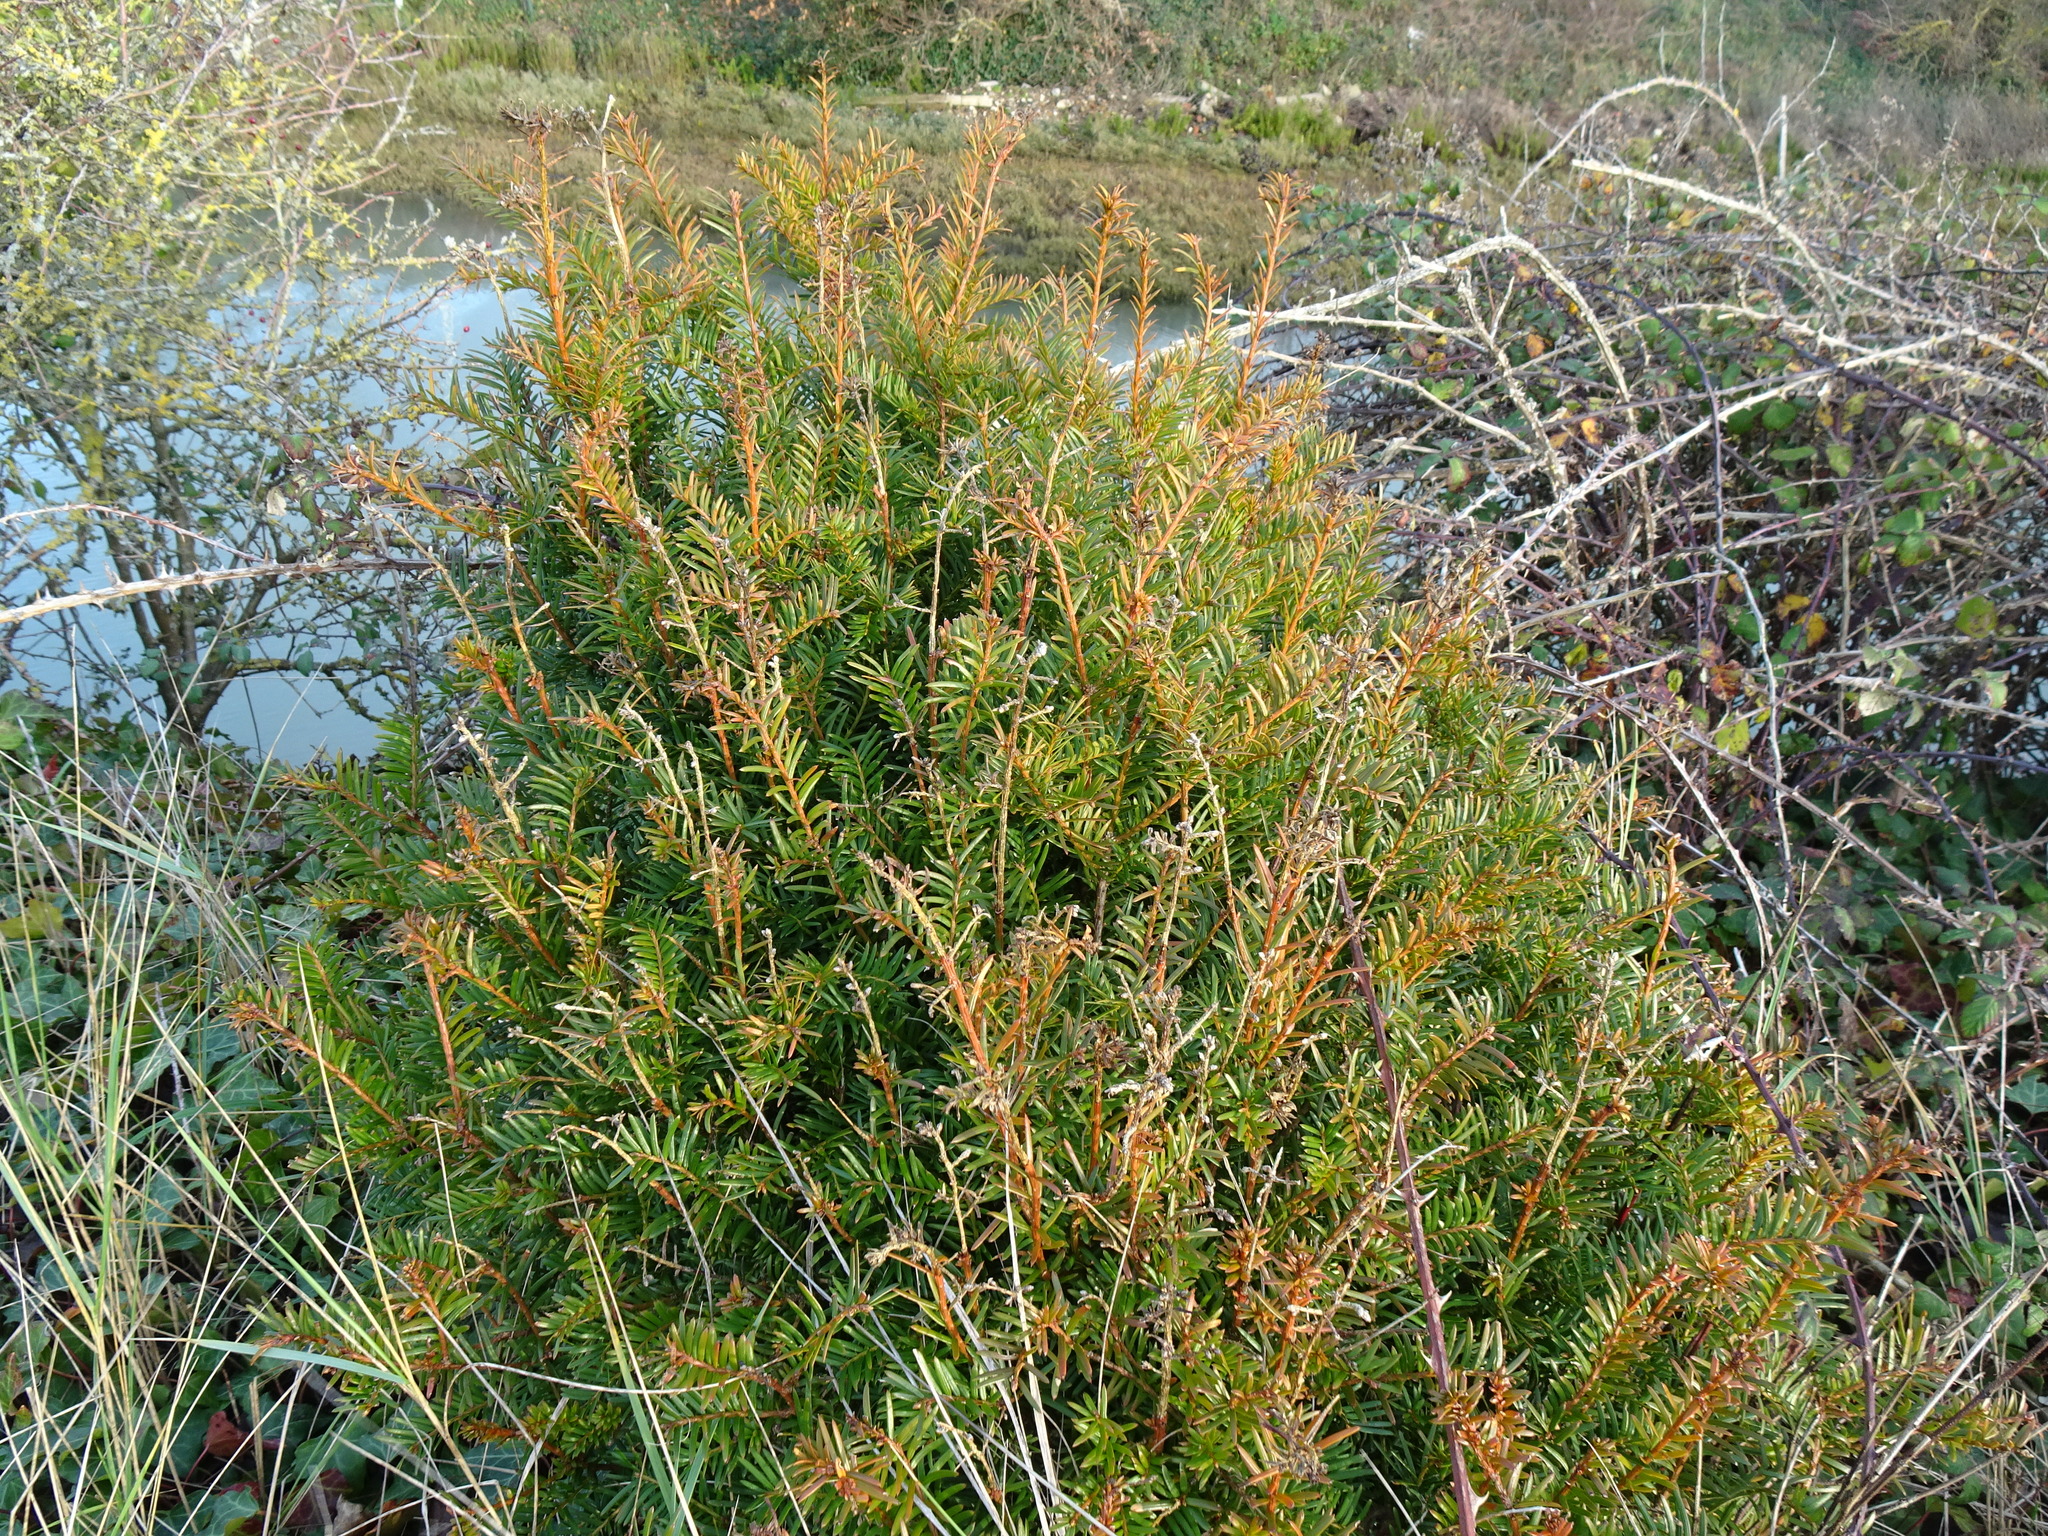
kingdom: Plantae
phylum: Tracheophyta
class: Pinopsida
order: Pinales
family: Taxaceae
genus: Taxus
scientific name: Taxus baccata
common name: Yew
